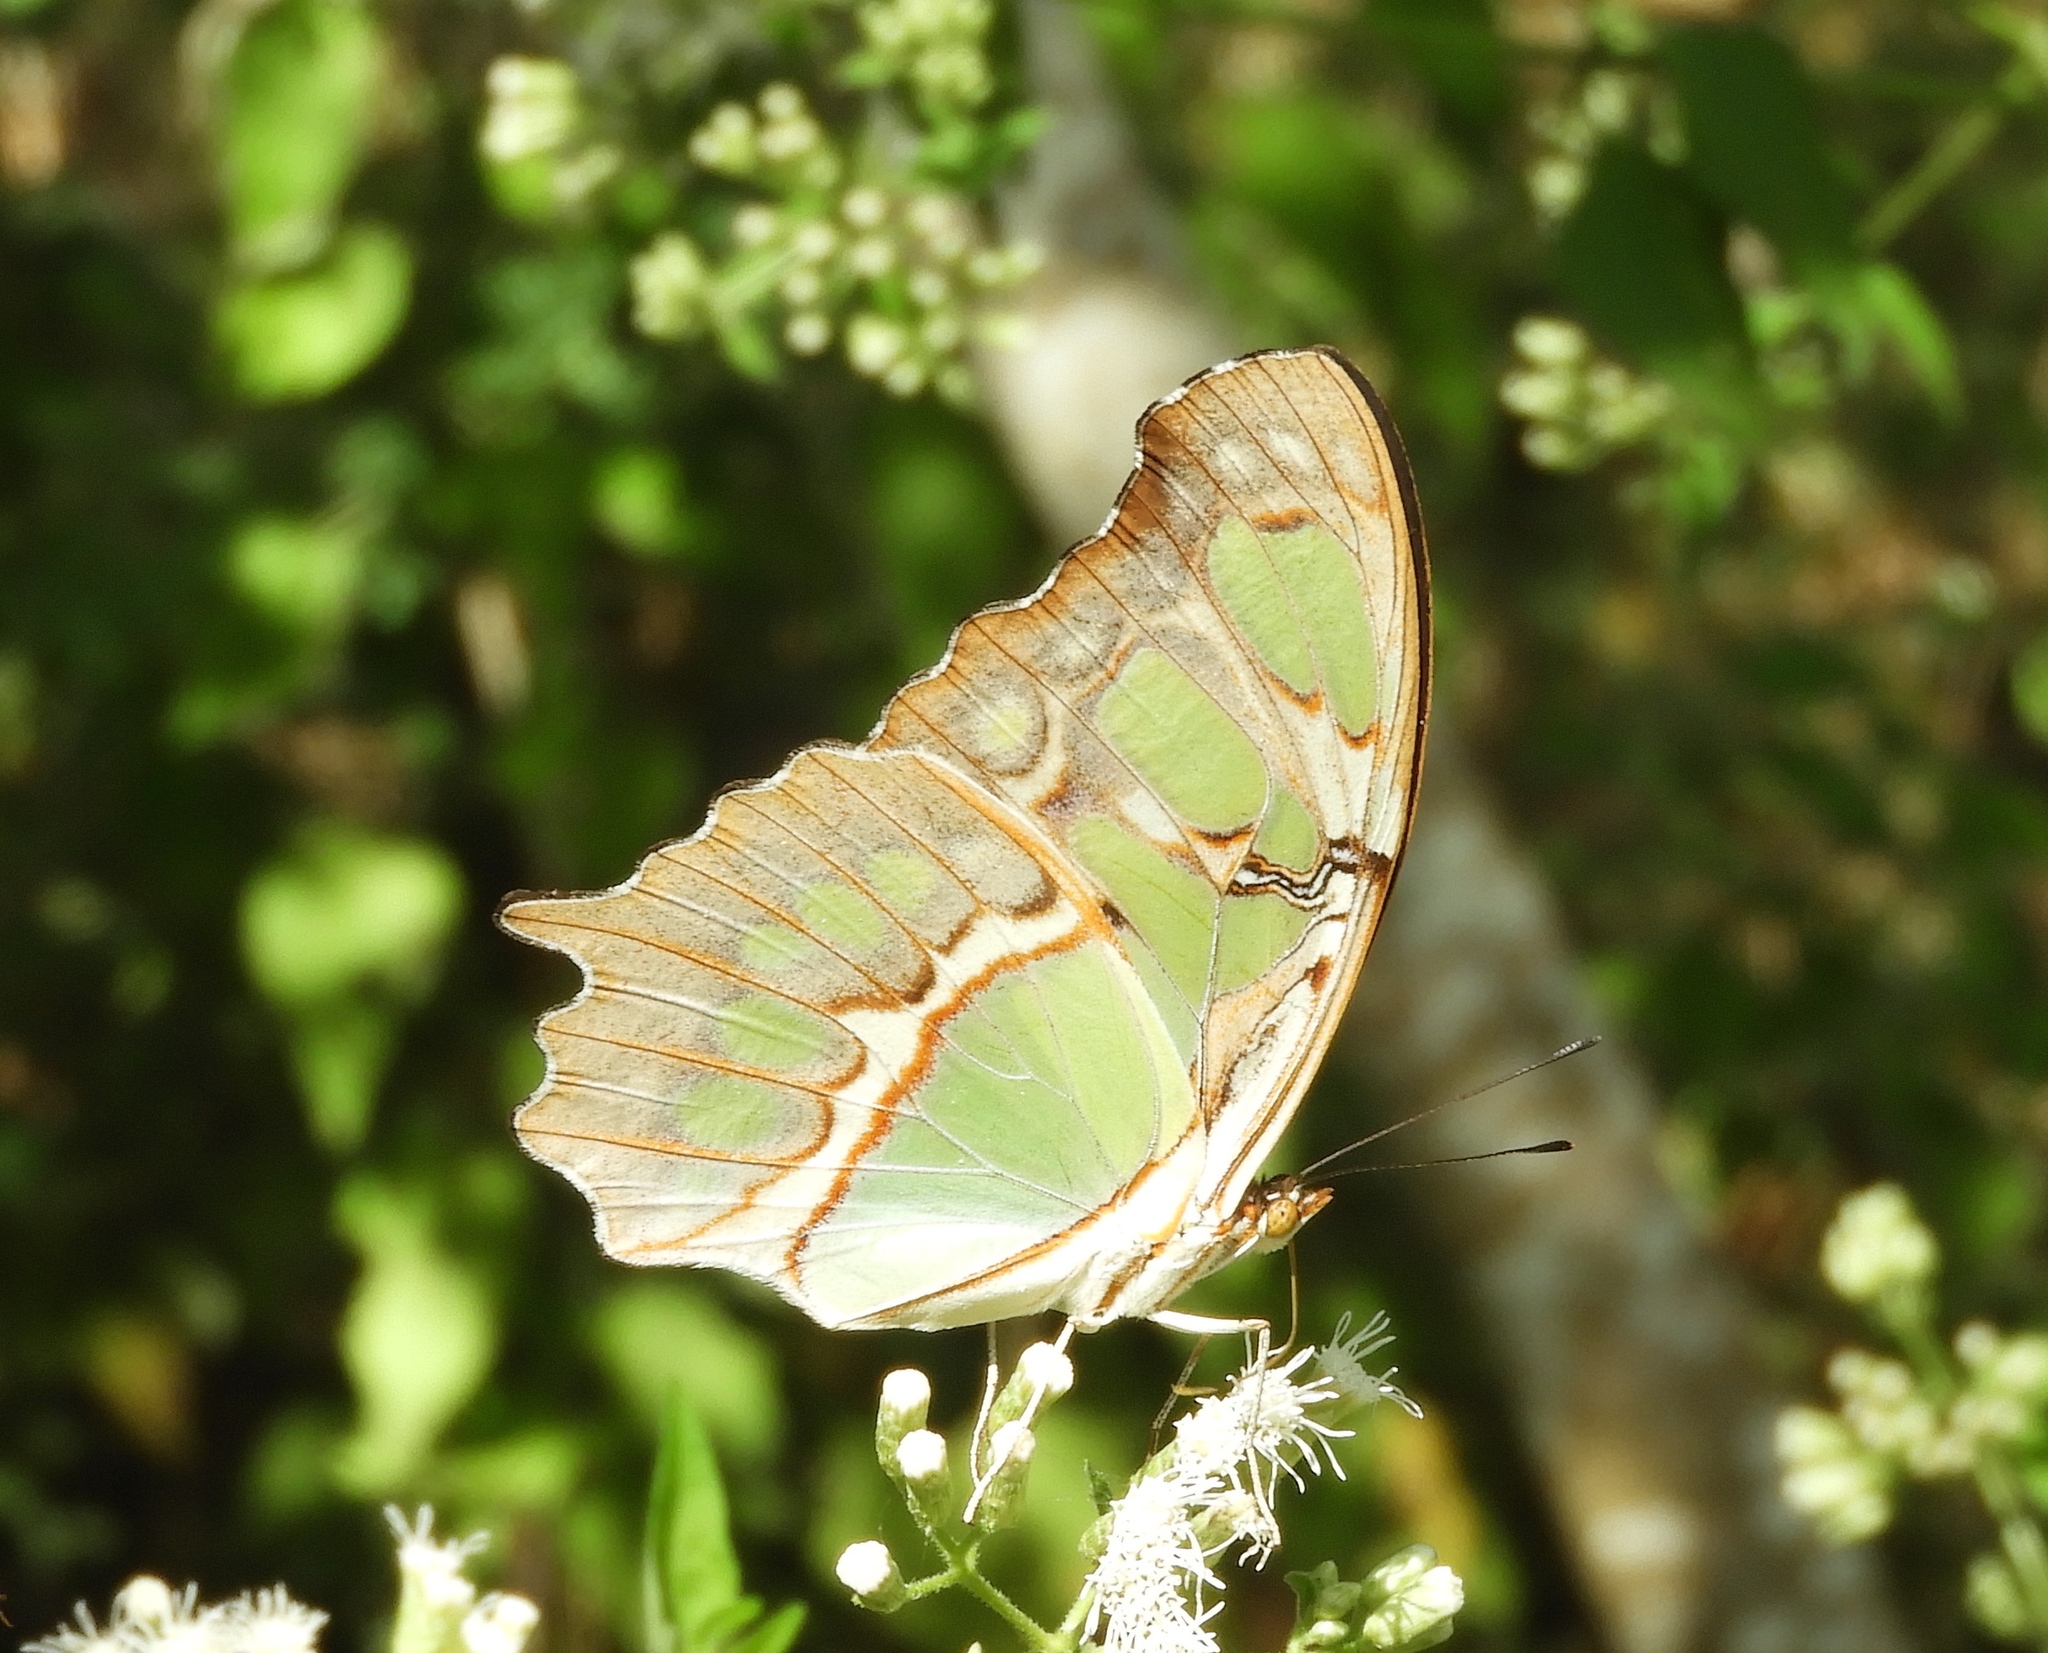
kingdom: Plantae
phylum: Tracheophyta
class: Magnoliopsida
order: Asterales
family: Asteraceae
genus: Chromolaena
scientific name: Chromolaena odorata
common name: Siamweed
